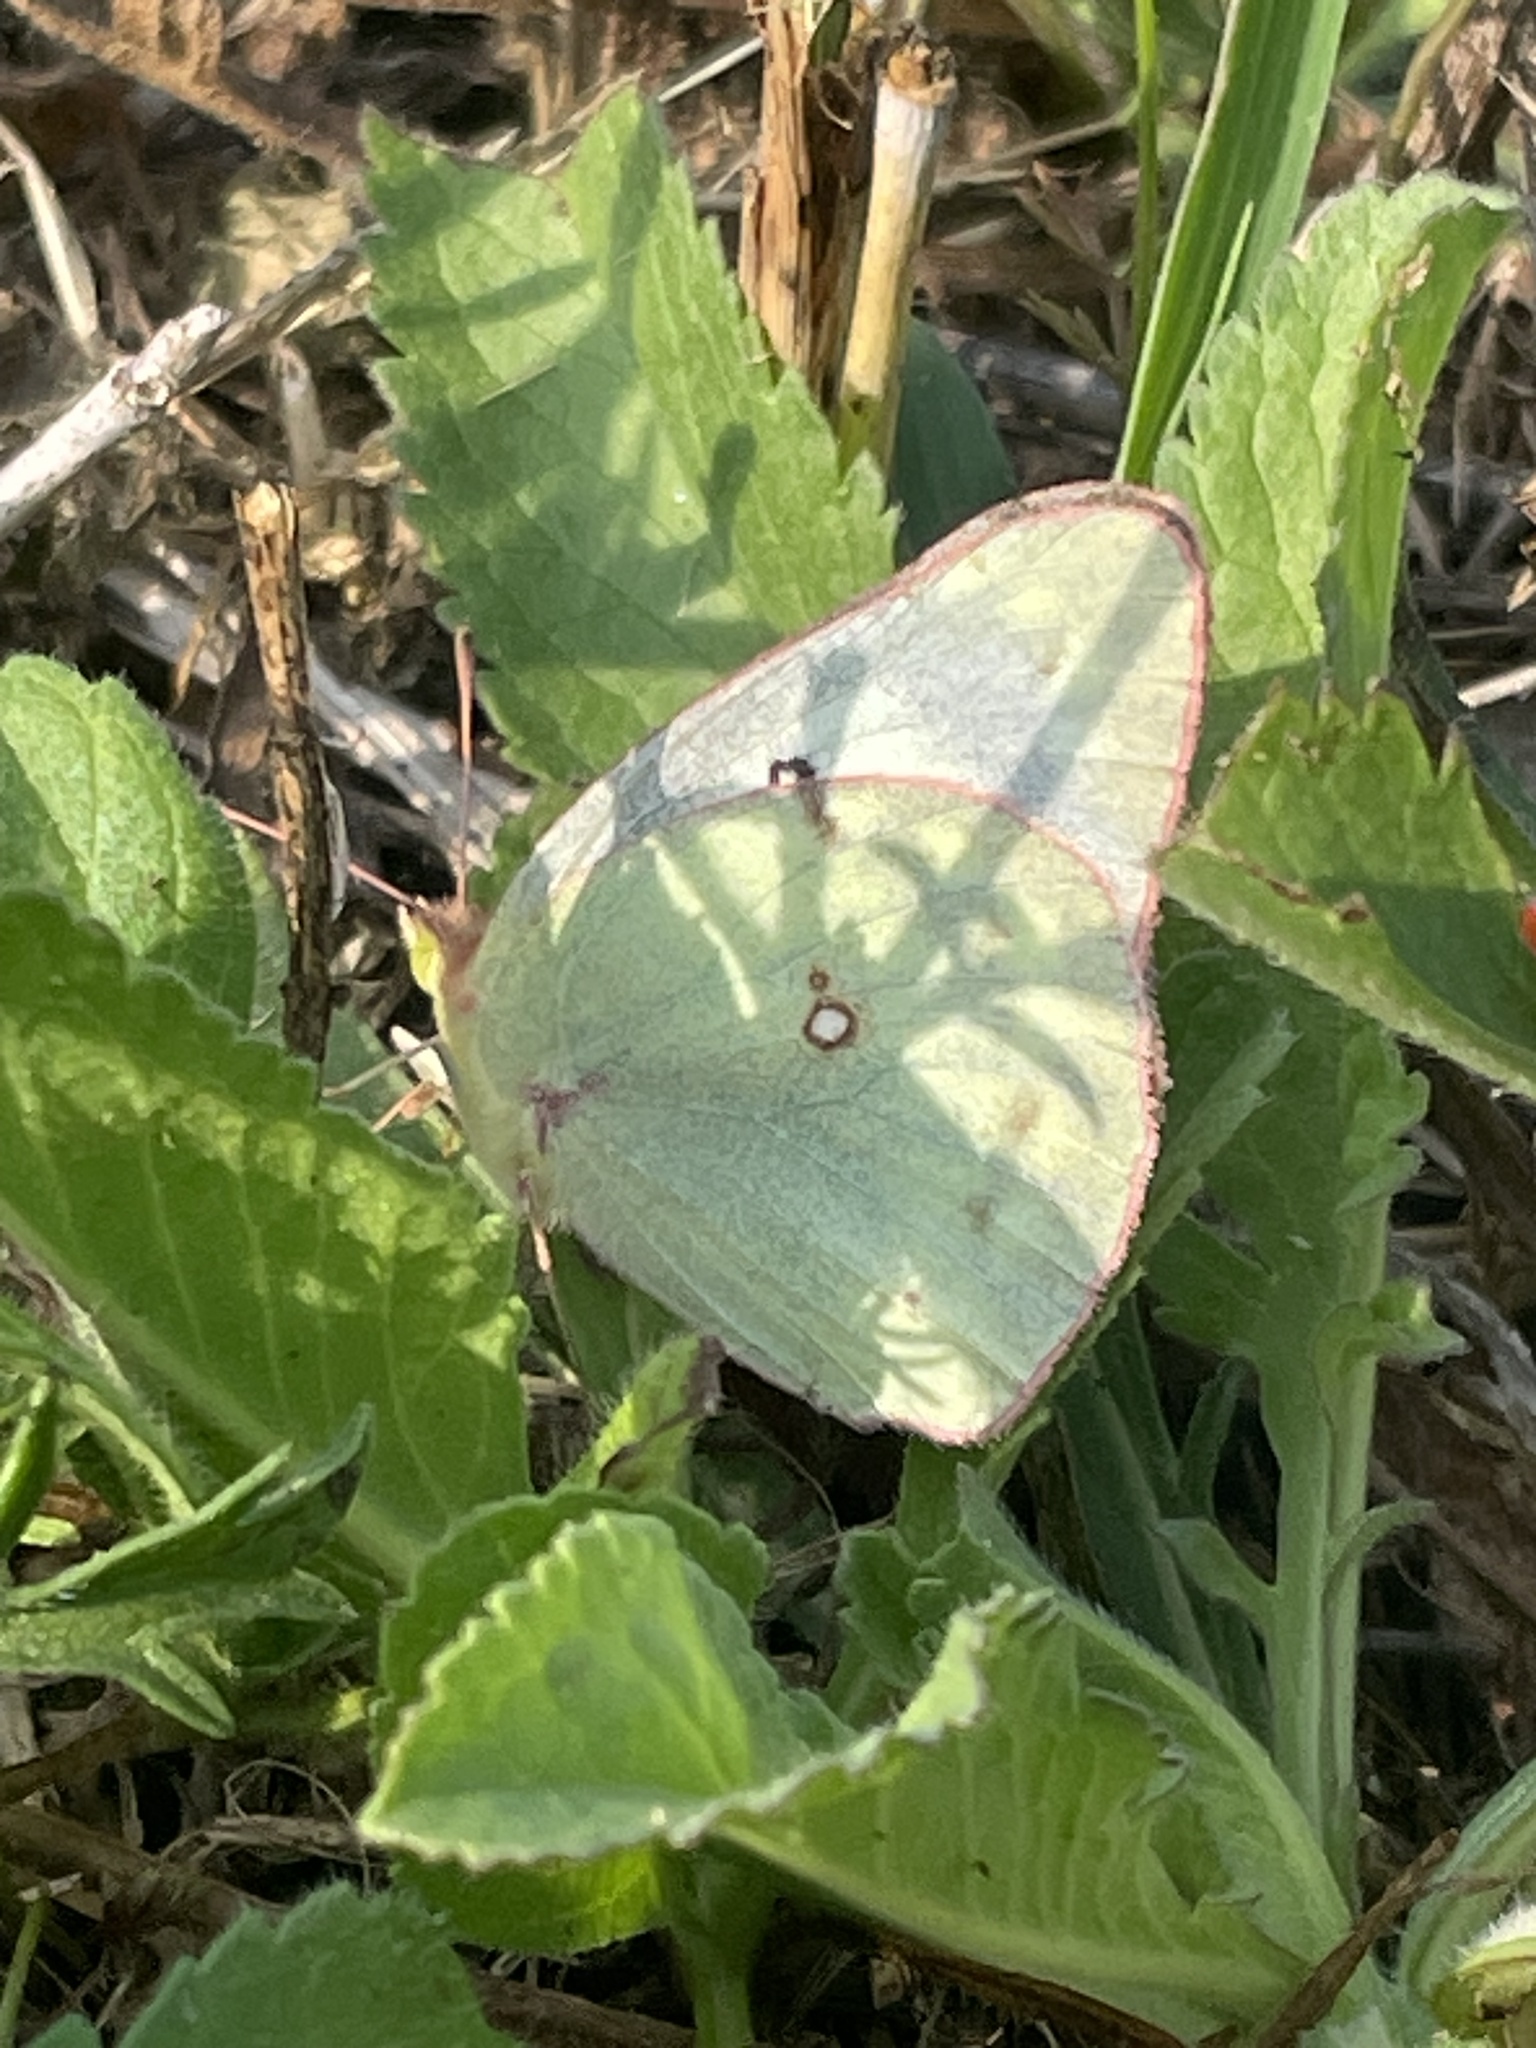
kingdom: Animalia
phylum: Arthropoda
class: Insecta
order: Lepidoptera
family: Pieridae
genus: Colias
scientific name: Colias eurytheme
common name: Alfalfa butterfly
